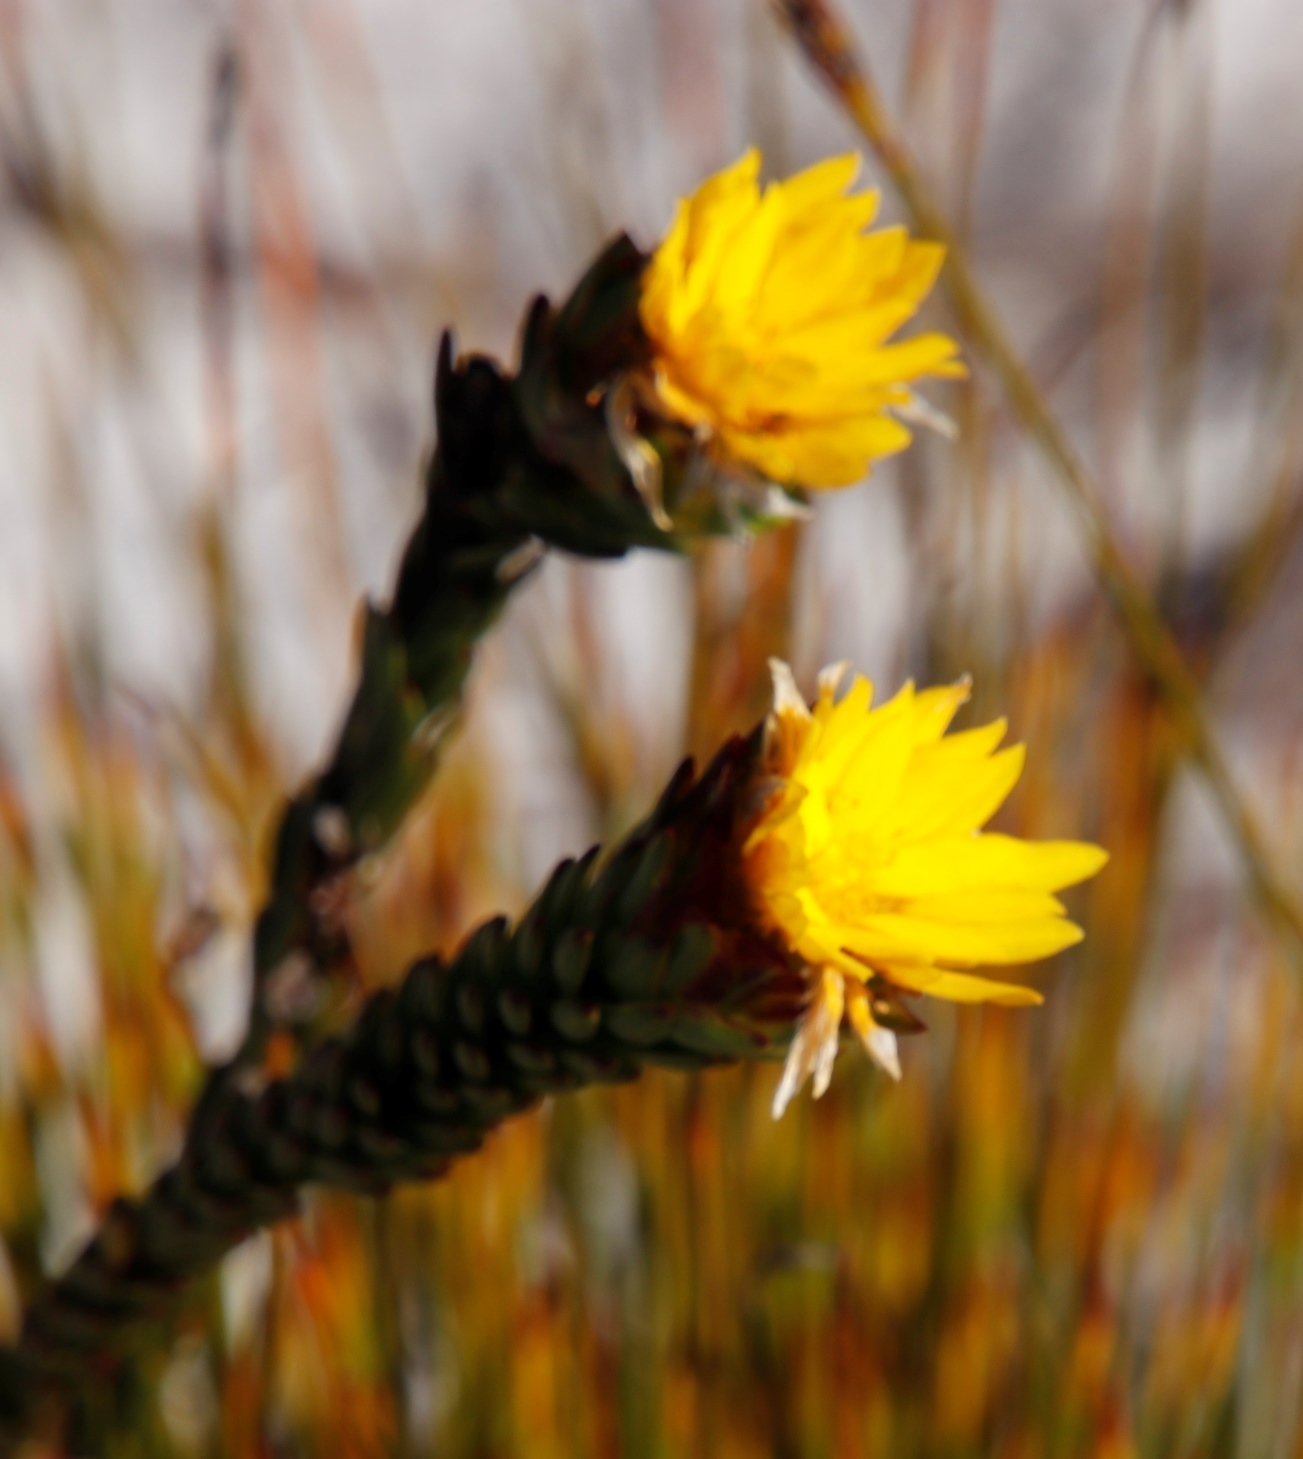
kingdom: Plantae
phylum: Tracheophyta
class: Magnoliopsida
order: Malvales
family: Thymelaeaceae
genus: Lachnaea
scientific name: Lachnaea aurea
